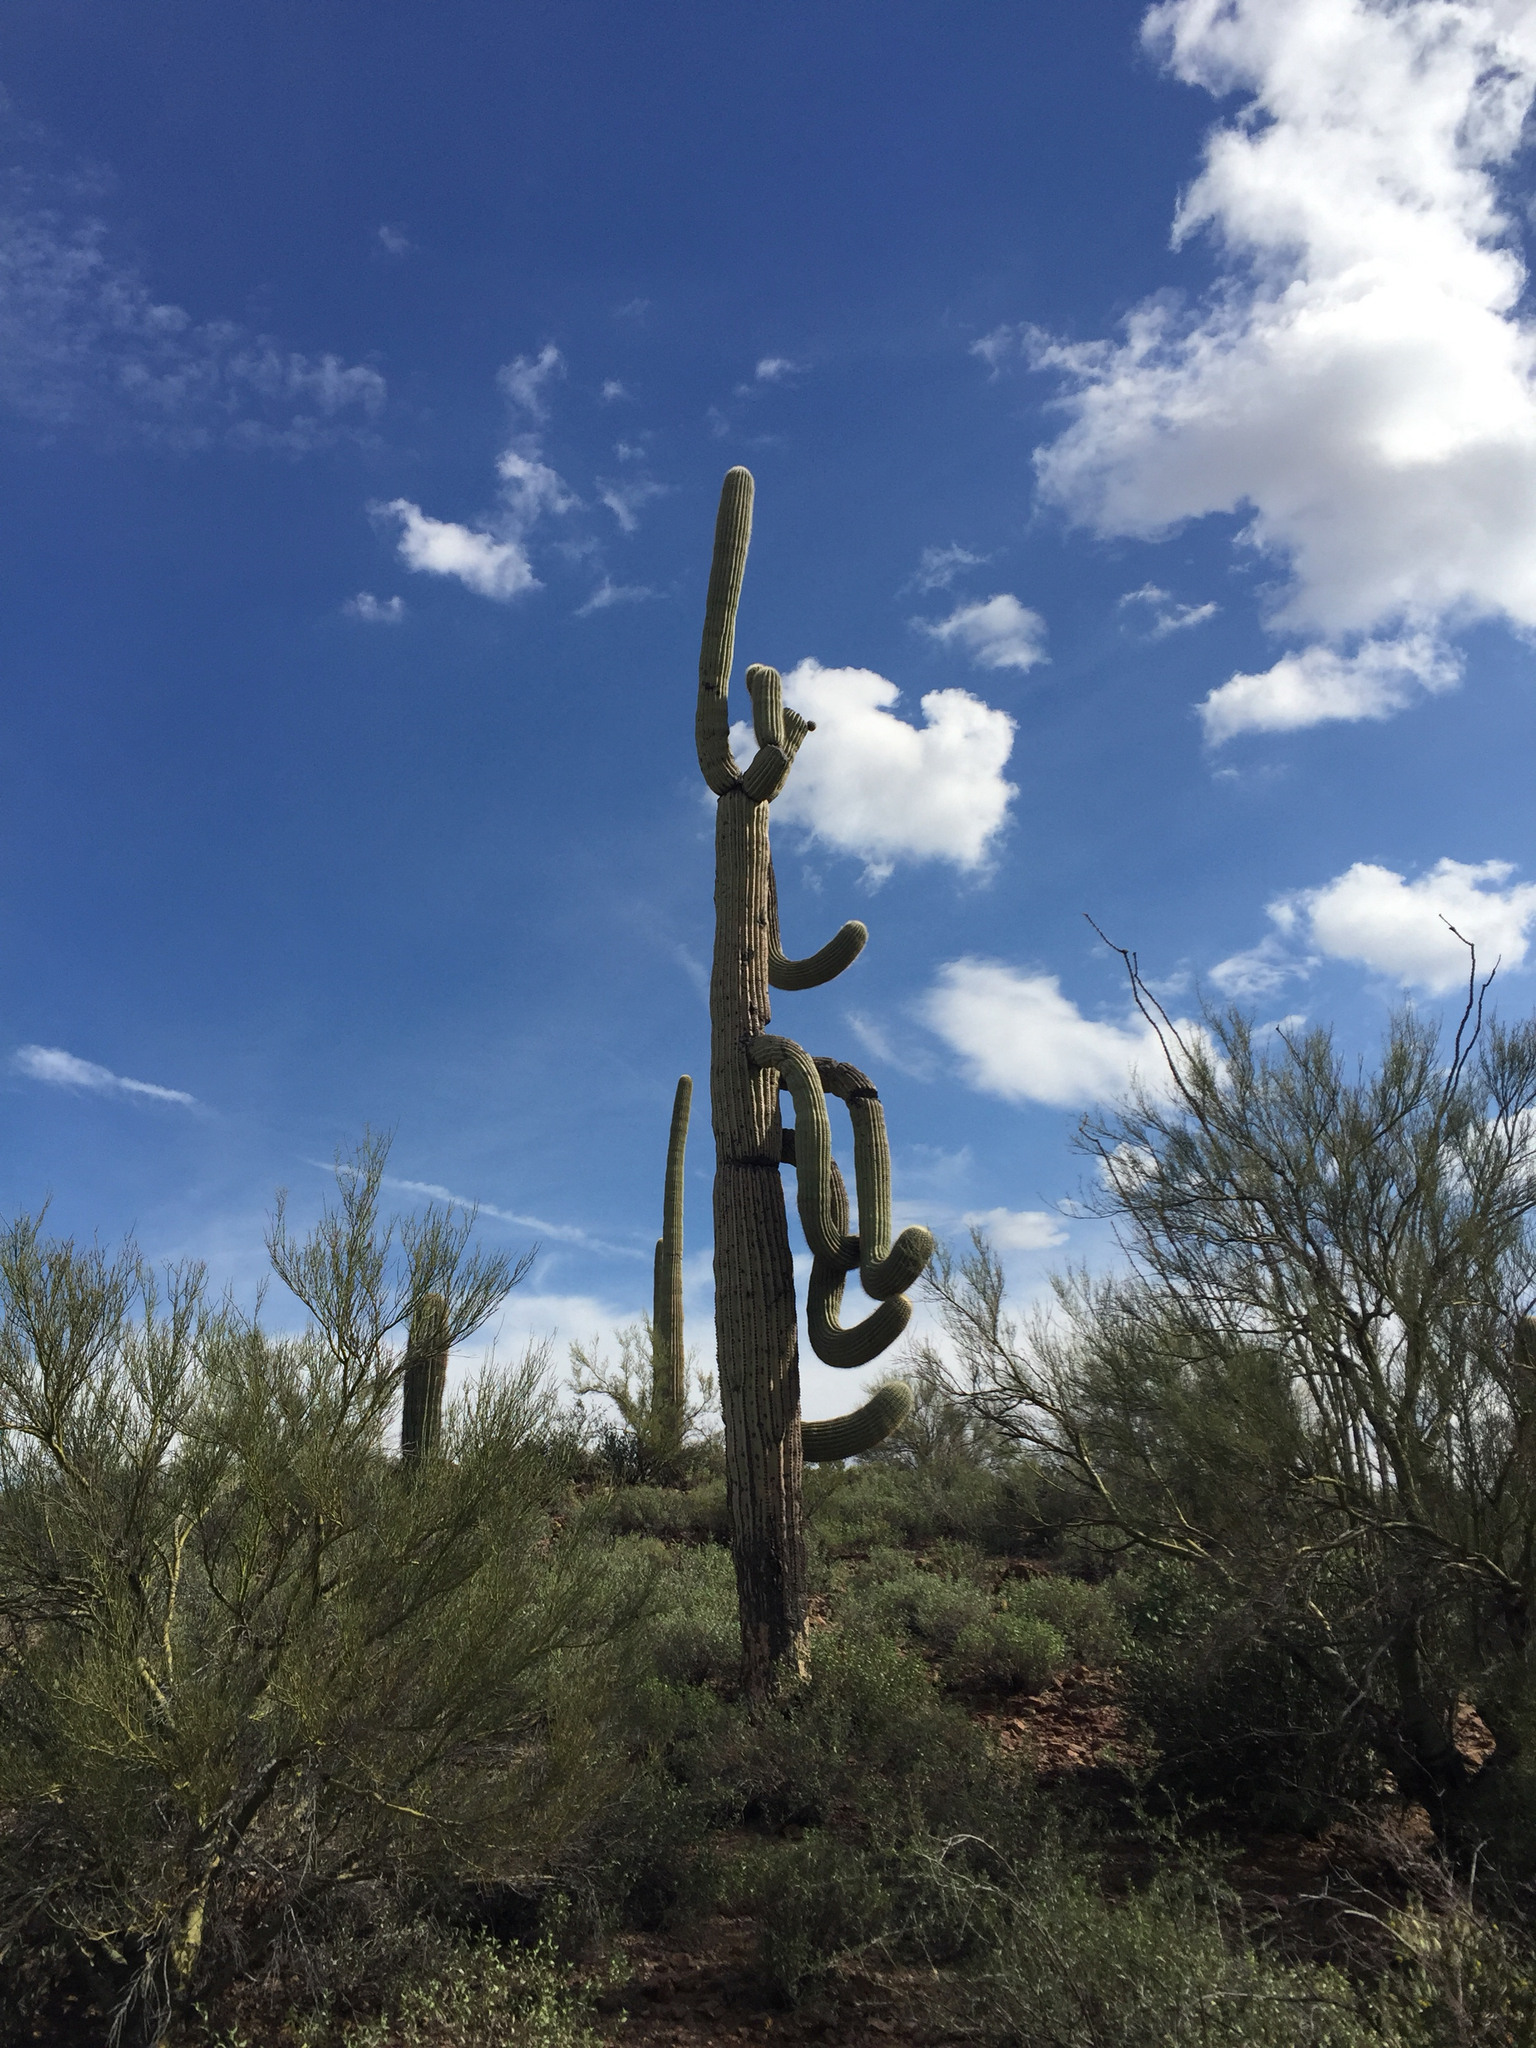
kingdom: Plantae
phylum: Tracheophyta
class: Magnoliopsida
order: Caryophyllales
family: Cactaceae
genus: Carnegiea
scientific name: Carnegiea gigantea
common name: Saguaro
